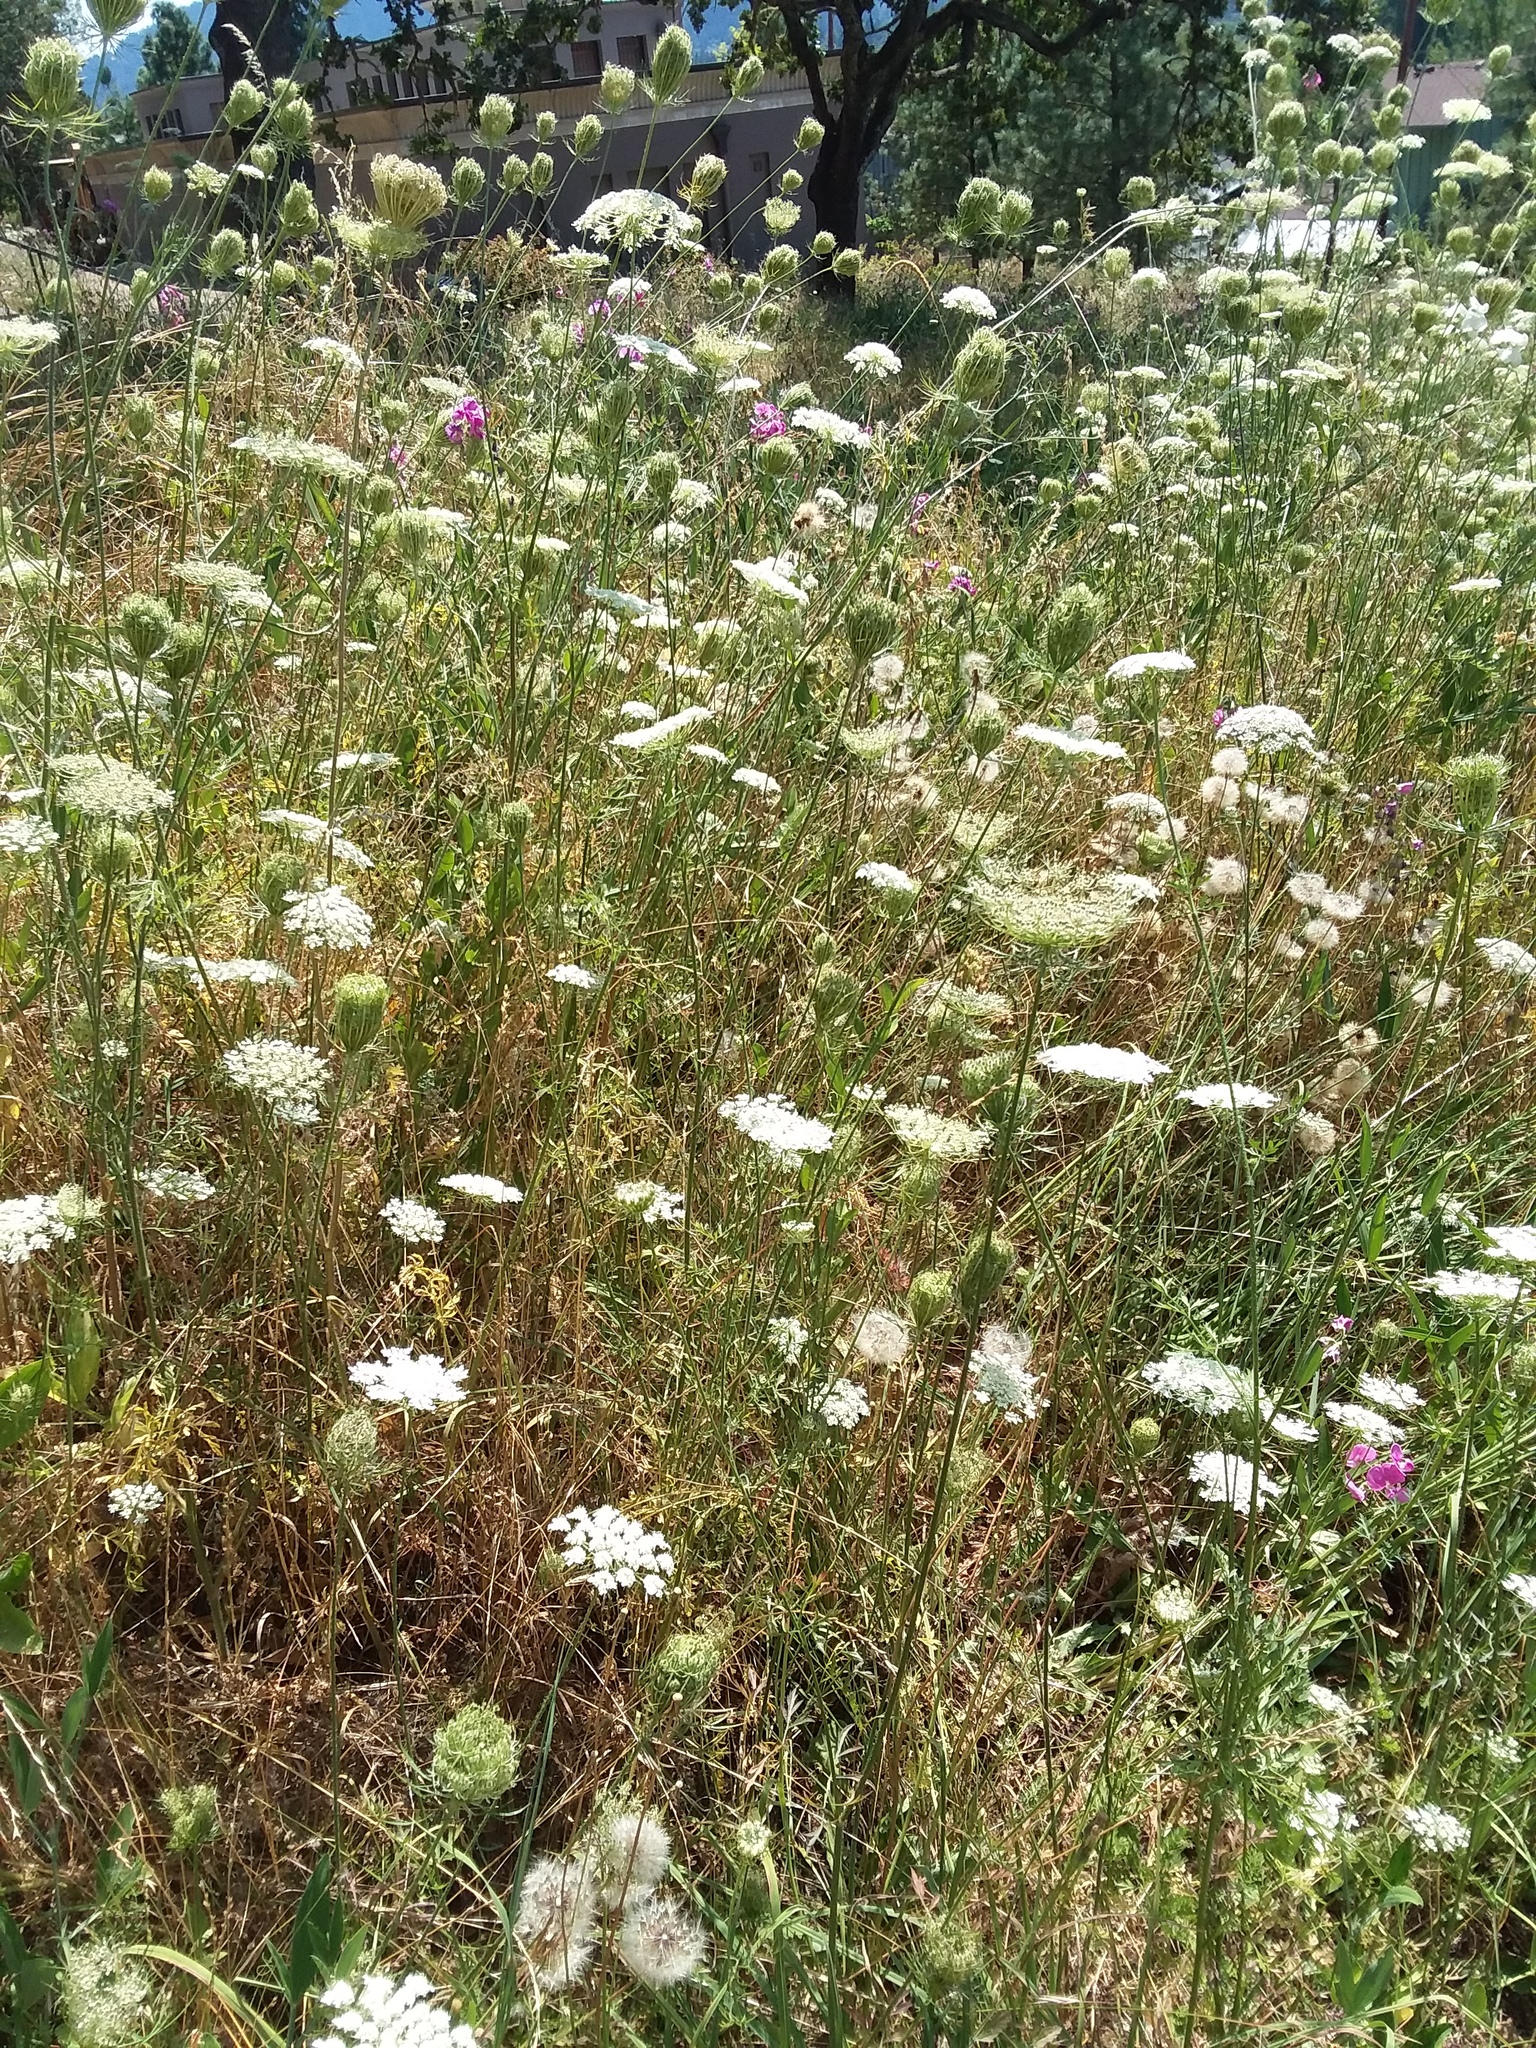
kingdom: Plantae
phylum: Tracheophyta
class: Magnoliopsida
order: Apiales
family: Apiaceae
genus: Daucus
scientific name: Daucus carota
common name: Wild carrot
